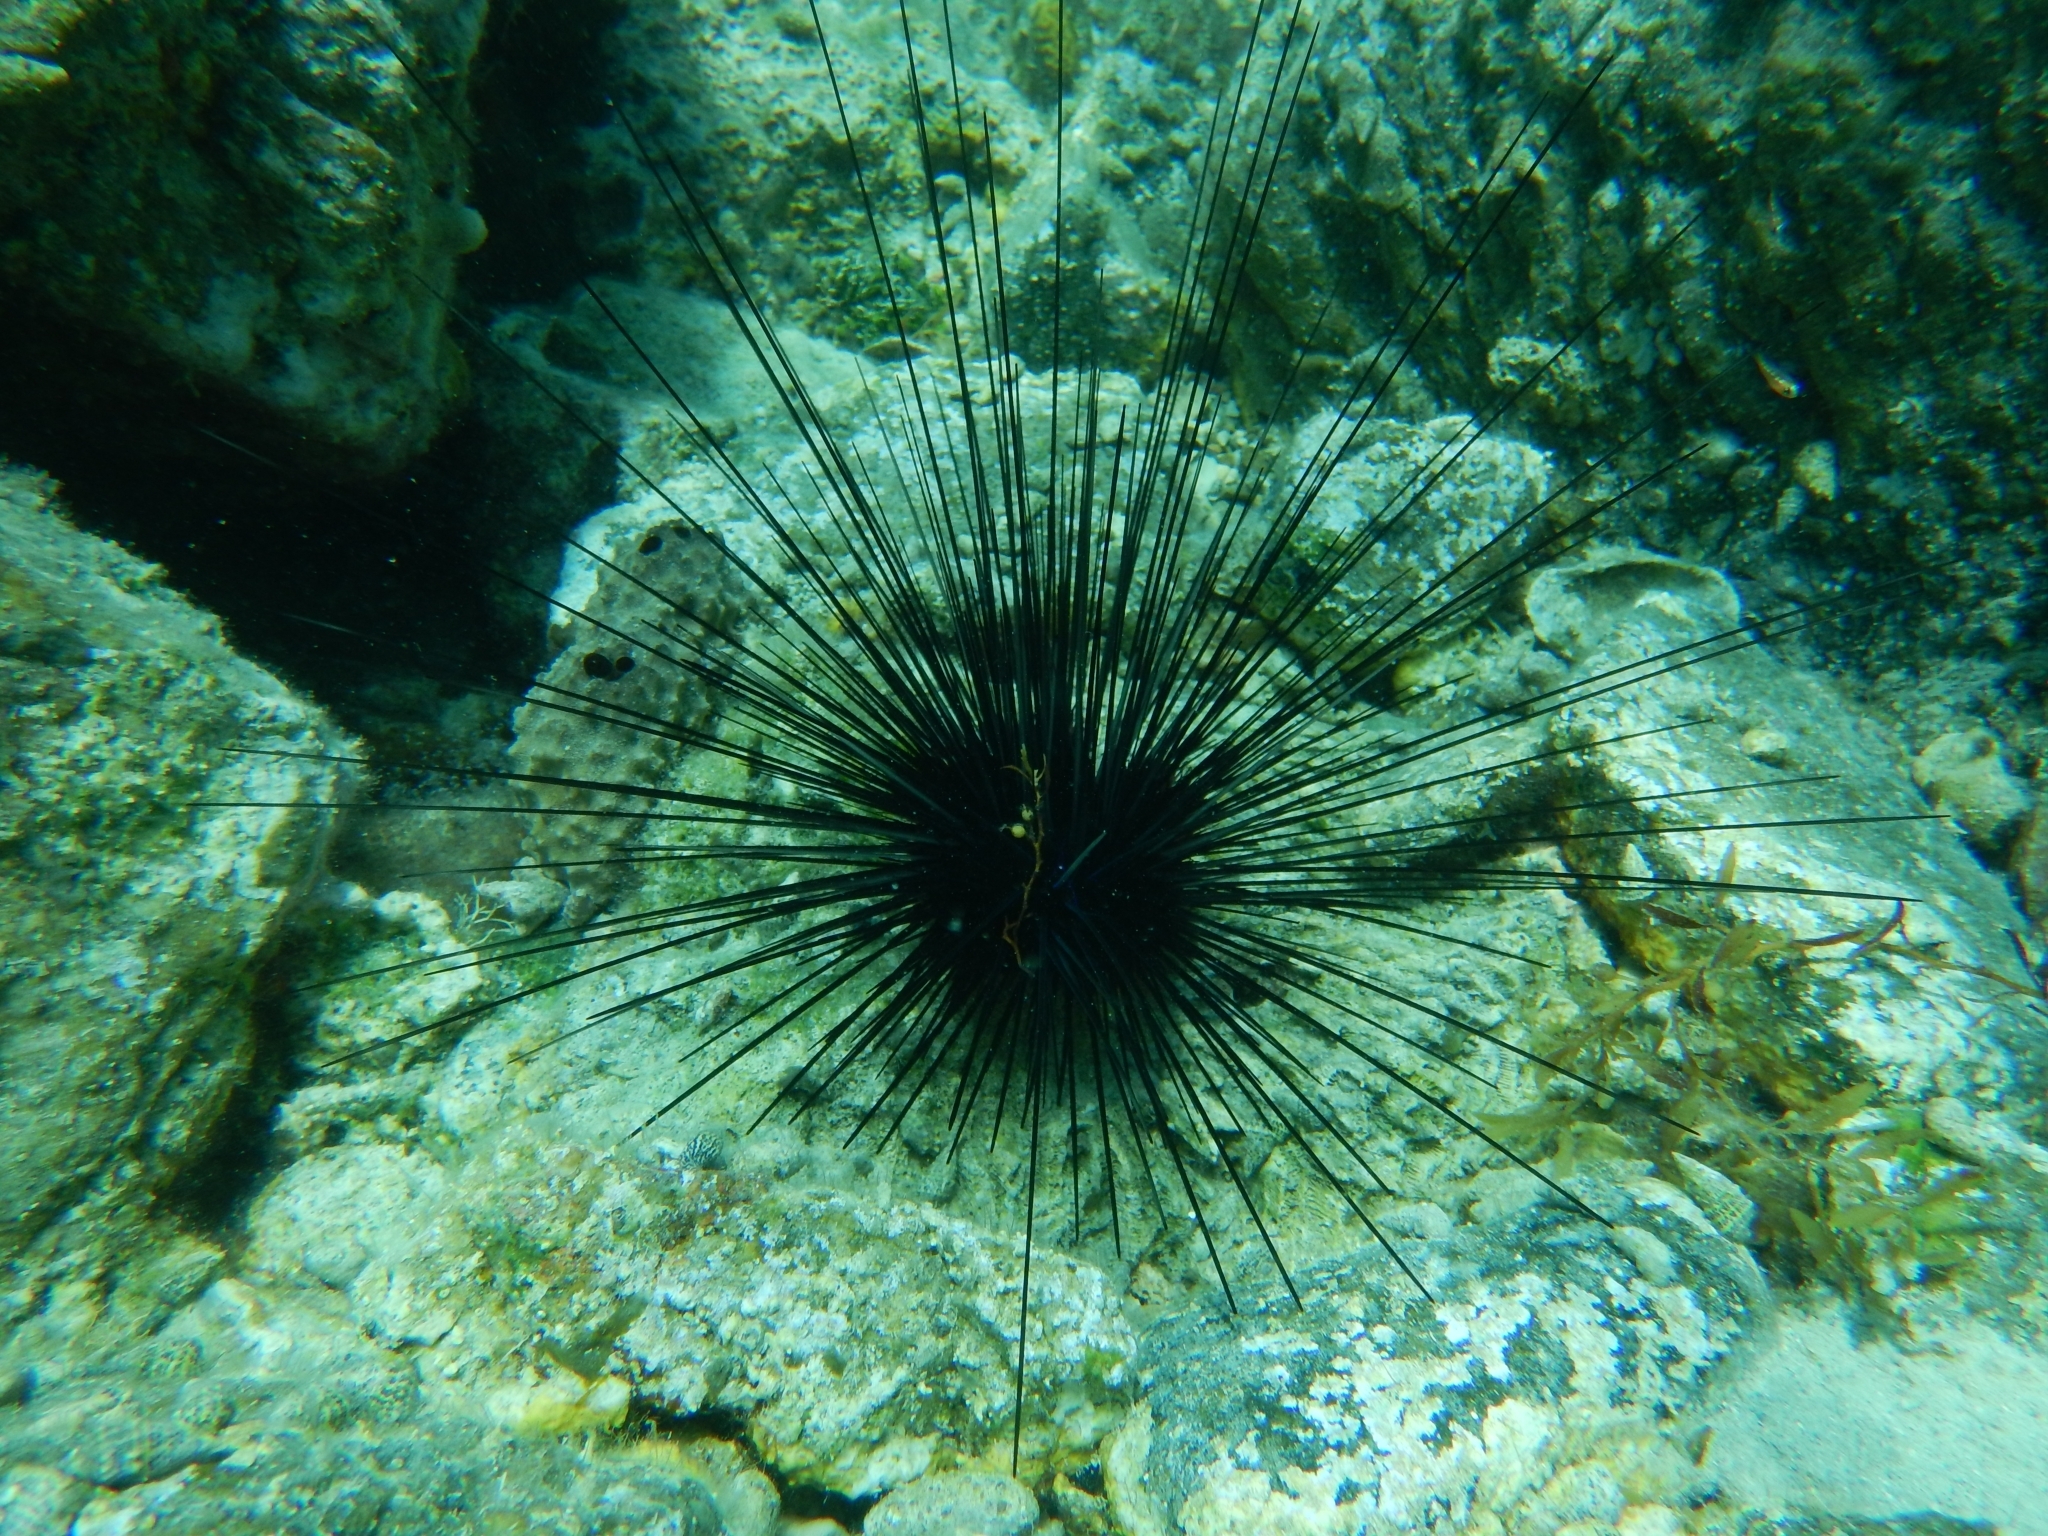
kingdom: Animalia
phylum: Echinodermata
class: Echinoidea
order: Diadematoida
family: Diadematidae
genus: Diadema
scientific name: Diadema antillarum
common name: Spiny urchin
